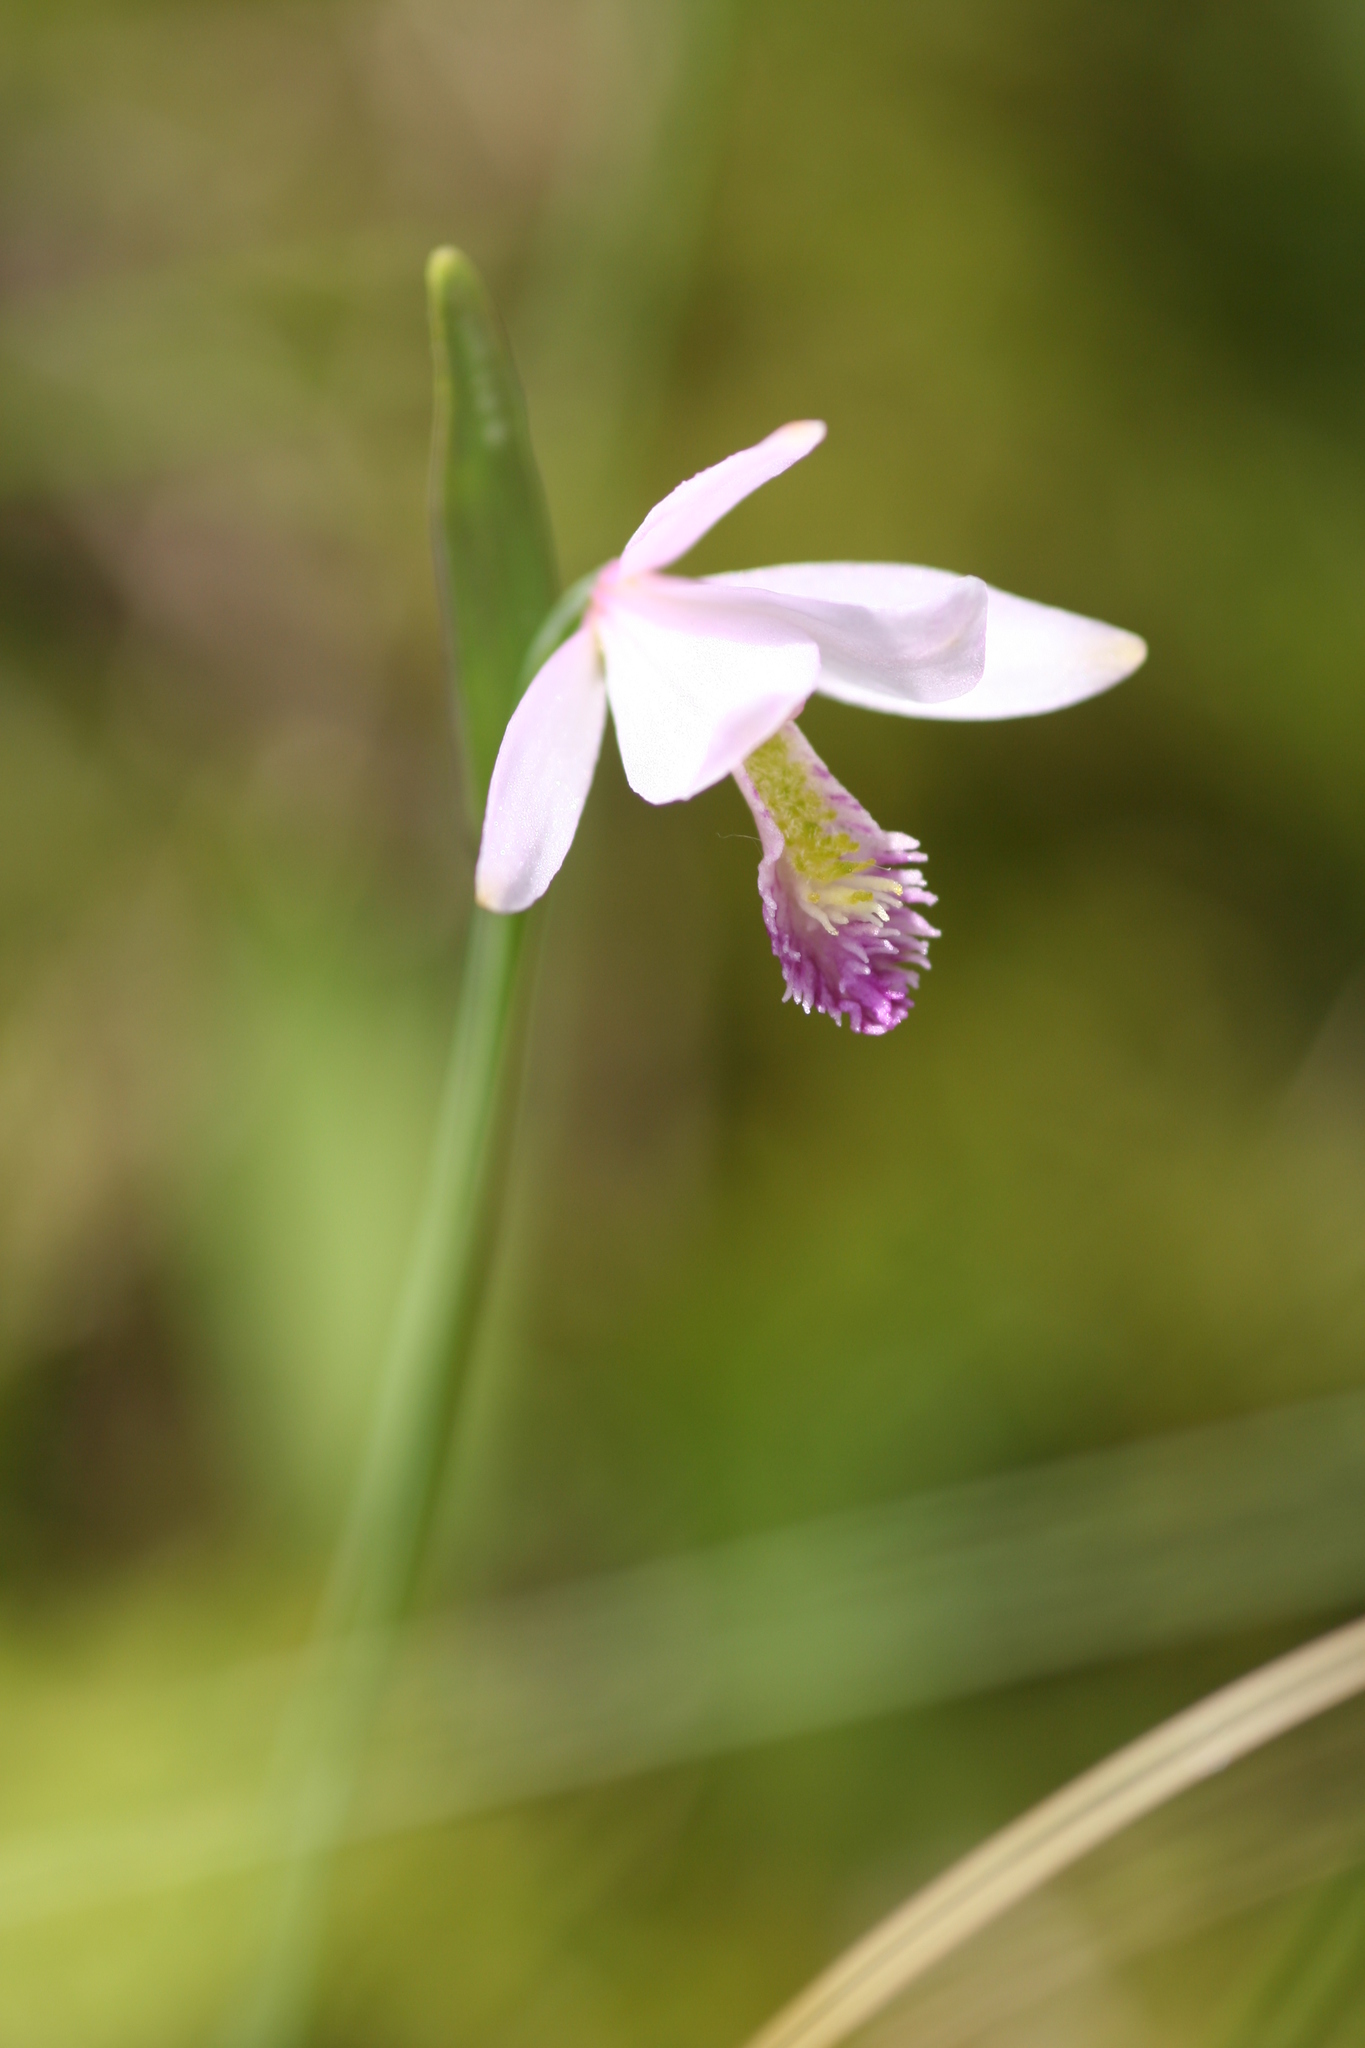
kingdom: Plantae
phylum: Tracheophyta
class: Liliopsida
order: Asparagales
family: Orchidaceae
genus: Pogonia
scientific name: Pogonia ophioglossoides
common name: Rose pogonia
